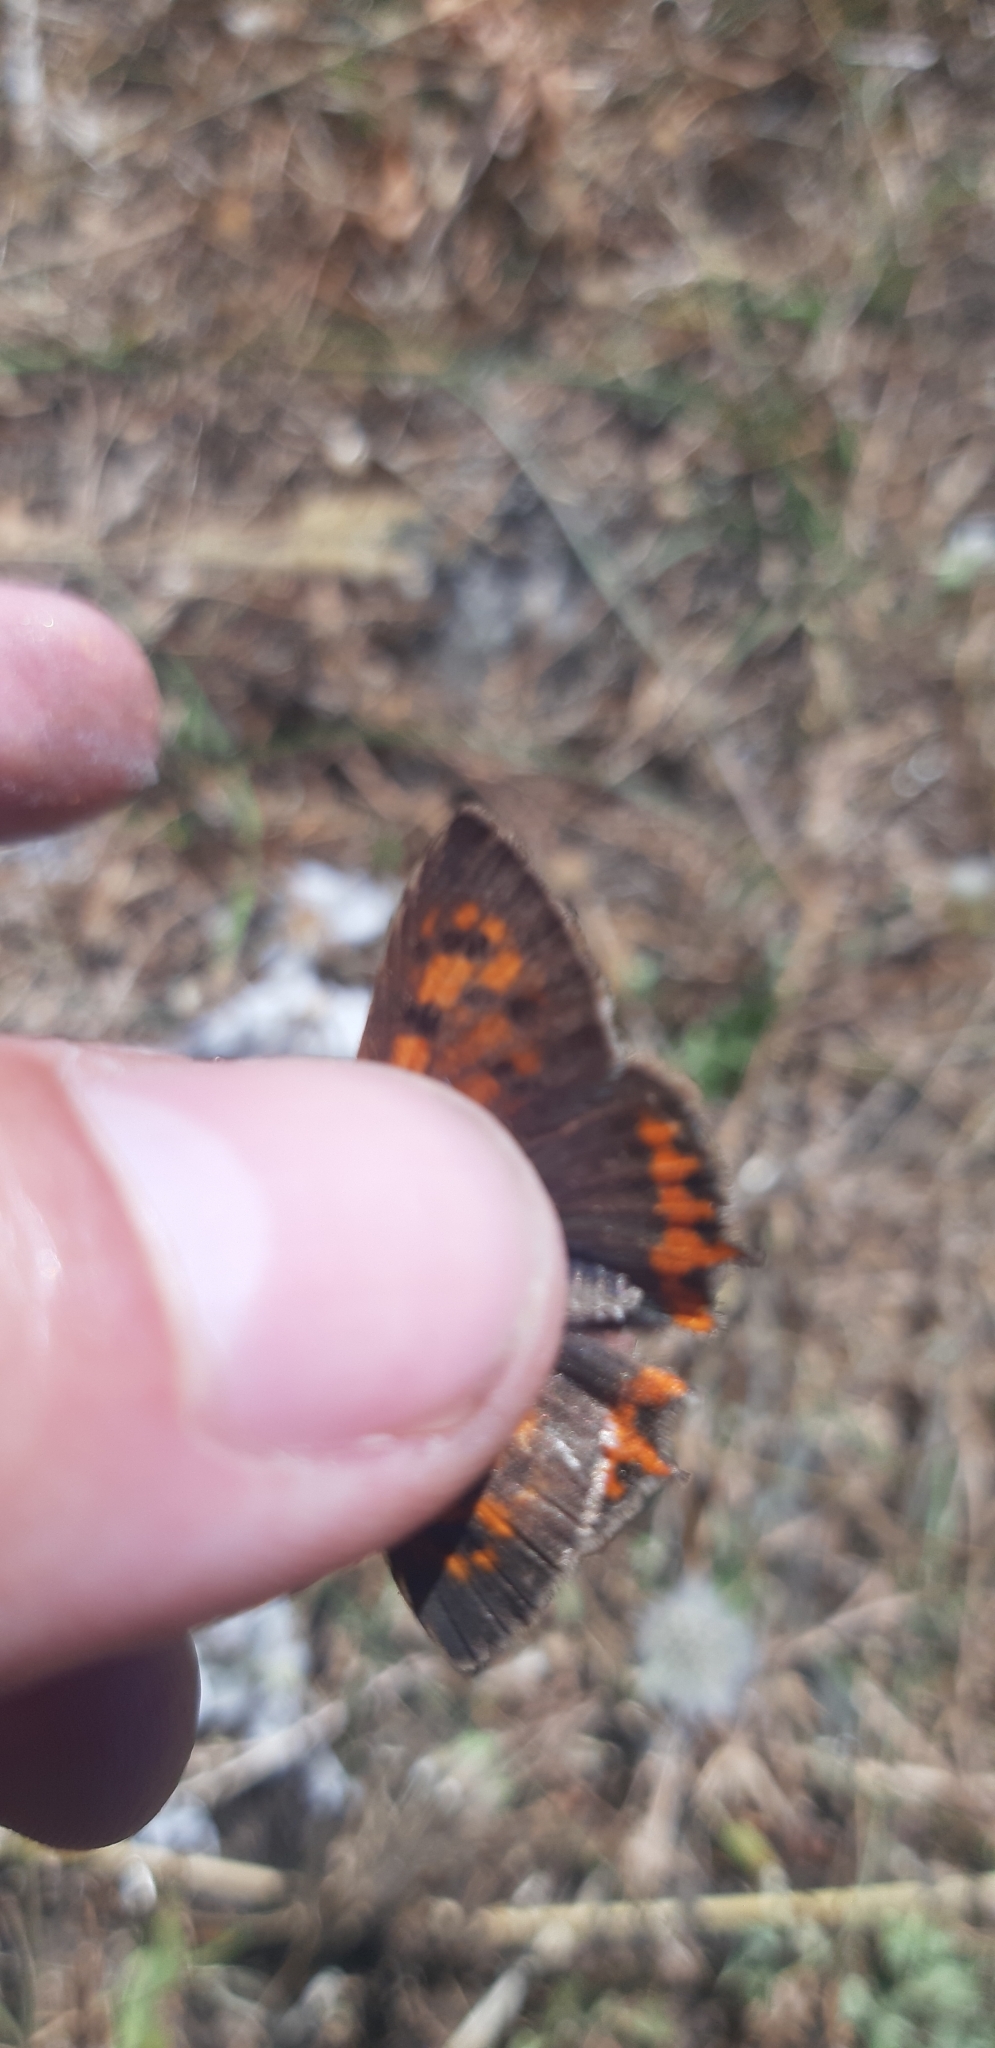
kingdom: Animalia
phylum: Arthropoda
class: Insecta
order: Lepidoptera
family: Lycaenidae
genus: Lycaena
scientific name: Lycaena phlaeas
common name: Small copper
